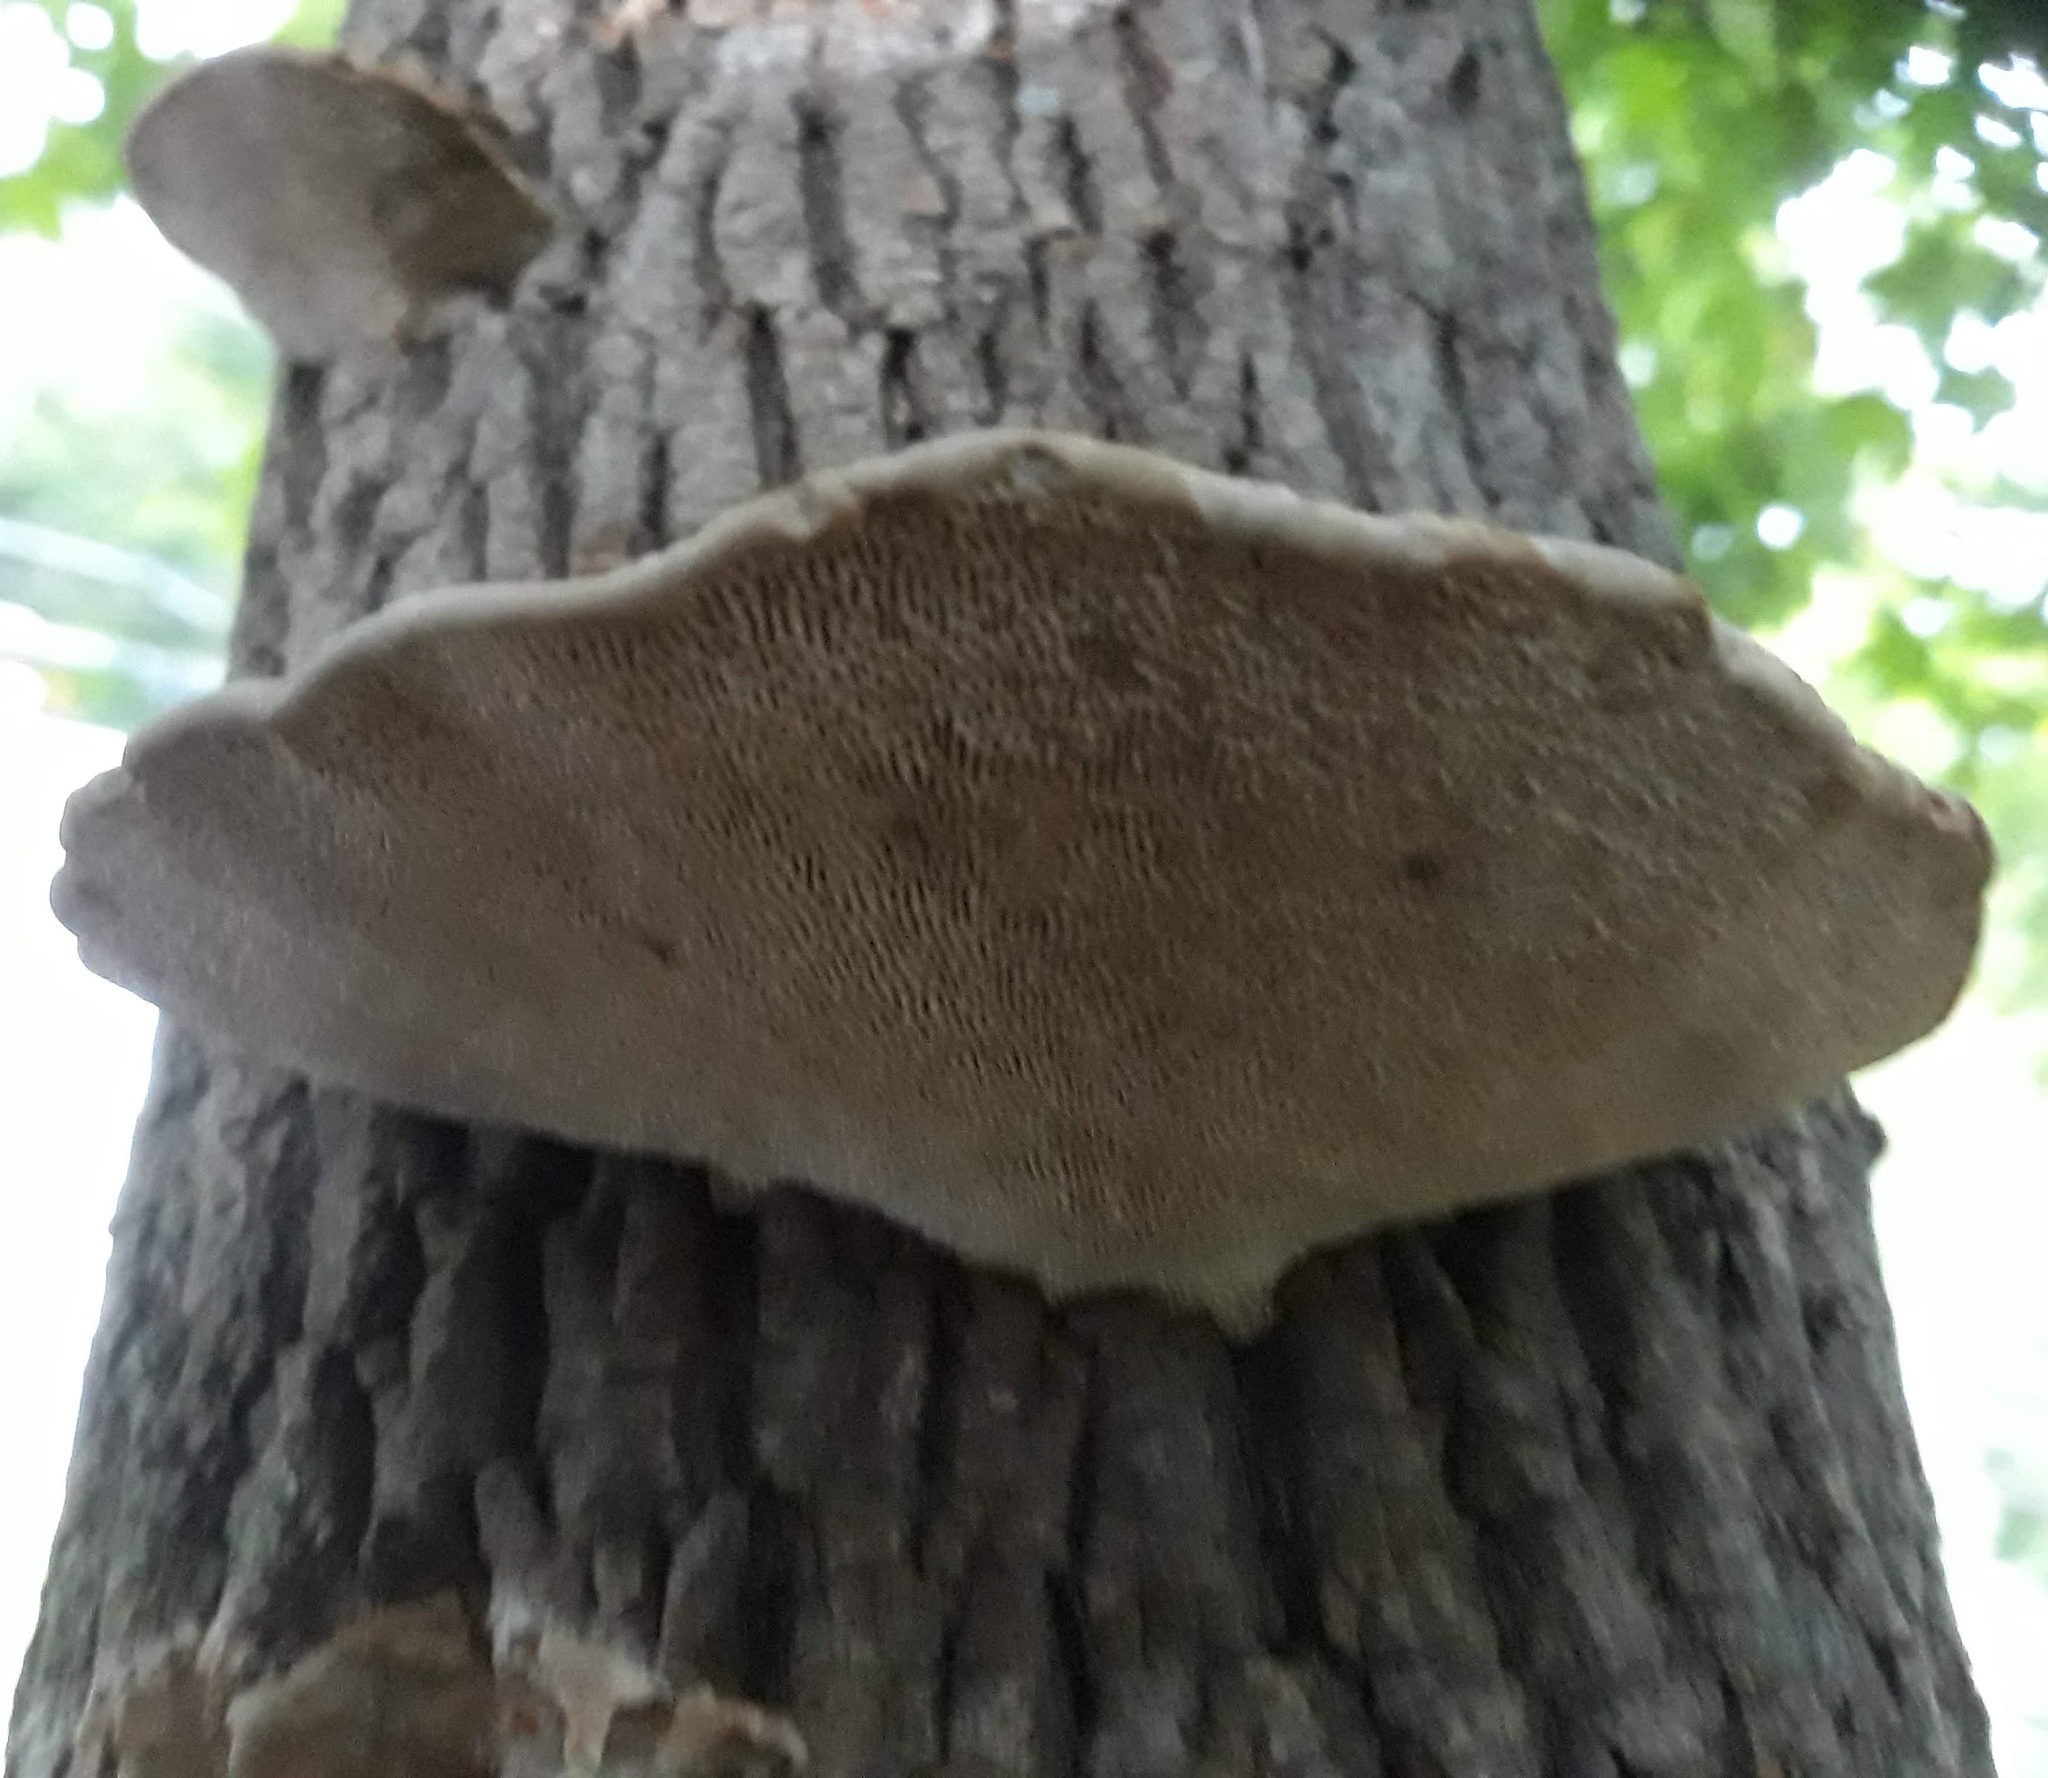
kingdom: Fungi
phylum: Basidiomycota
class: Agaricomycetes
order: Polyporales
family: Polyporaceae
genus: Daedaleopsis
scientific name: Daedaleopsis confragosa
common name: Blushing bracket
